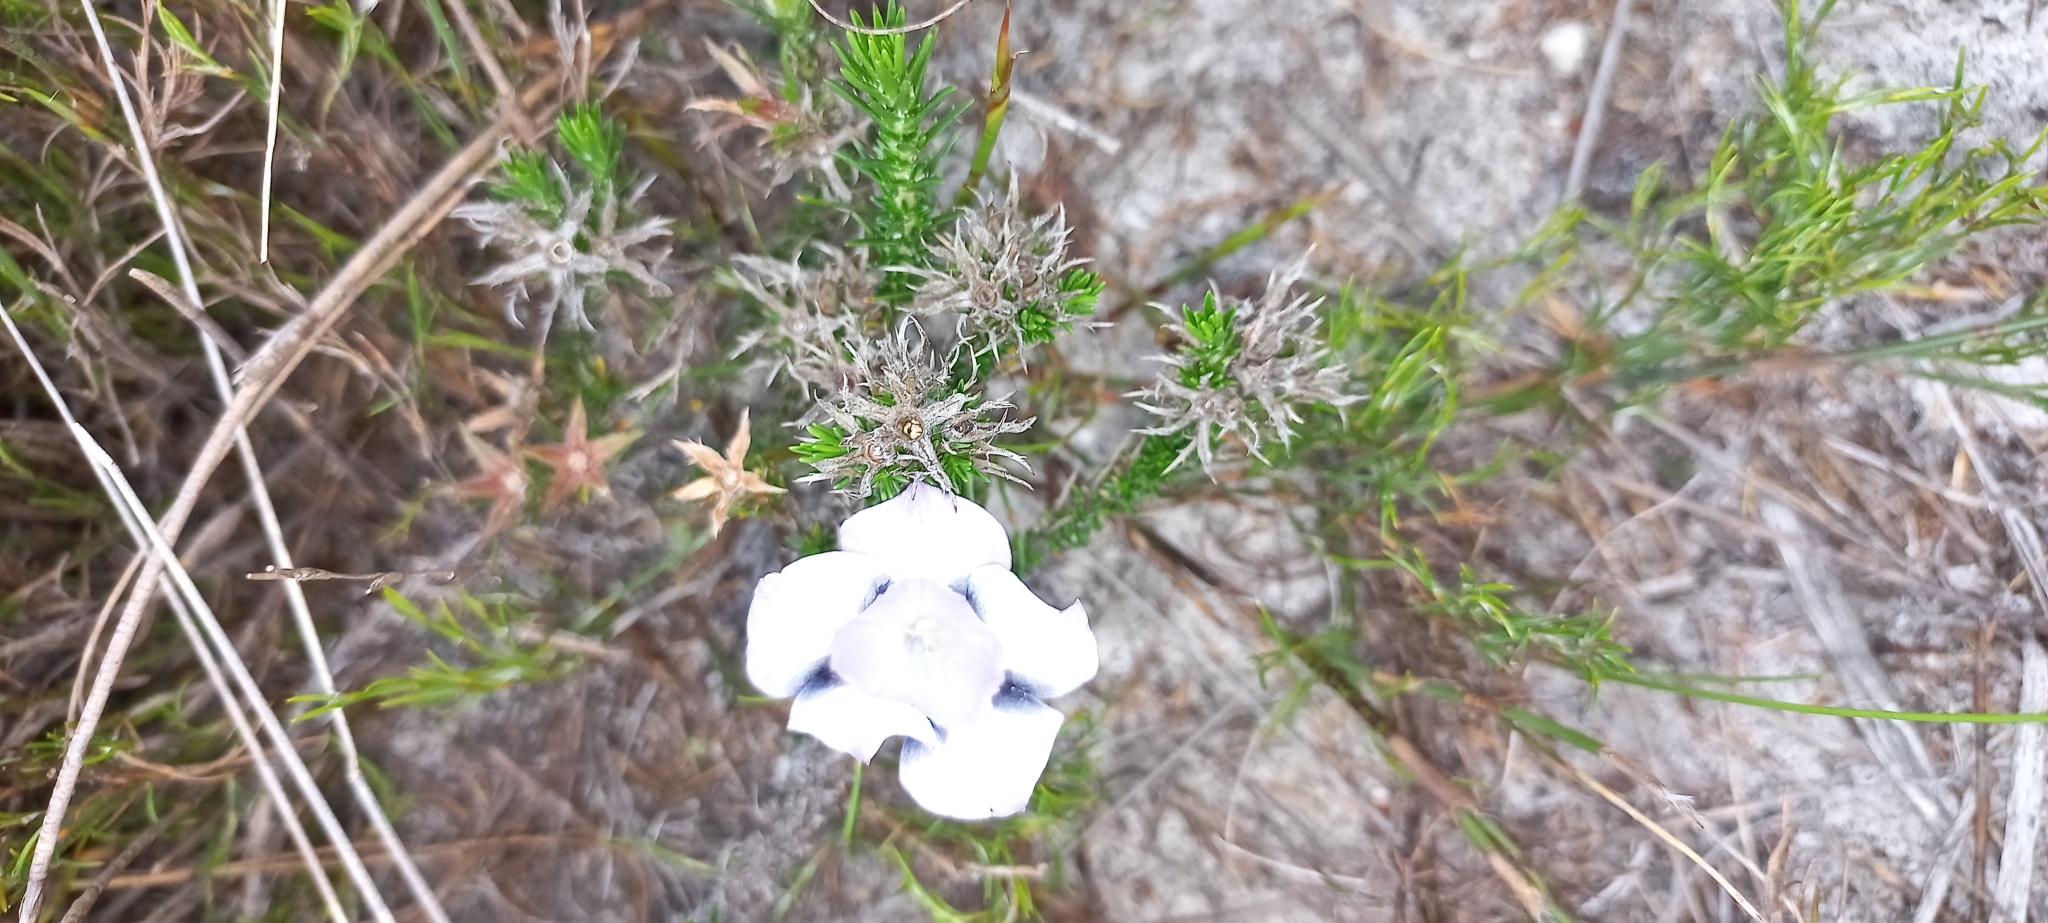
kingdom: Plantae
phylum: Tracheophyta
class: Magnoliopsida
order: Asterales
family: Campanulaceae
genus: Roella
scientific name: Roella maculata
